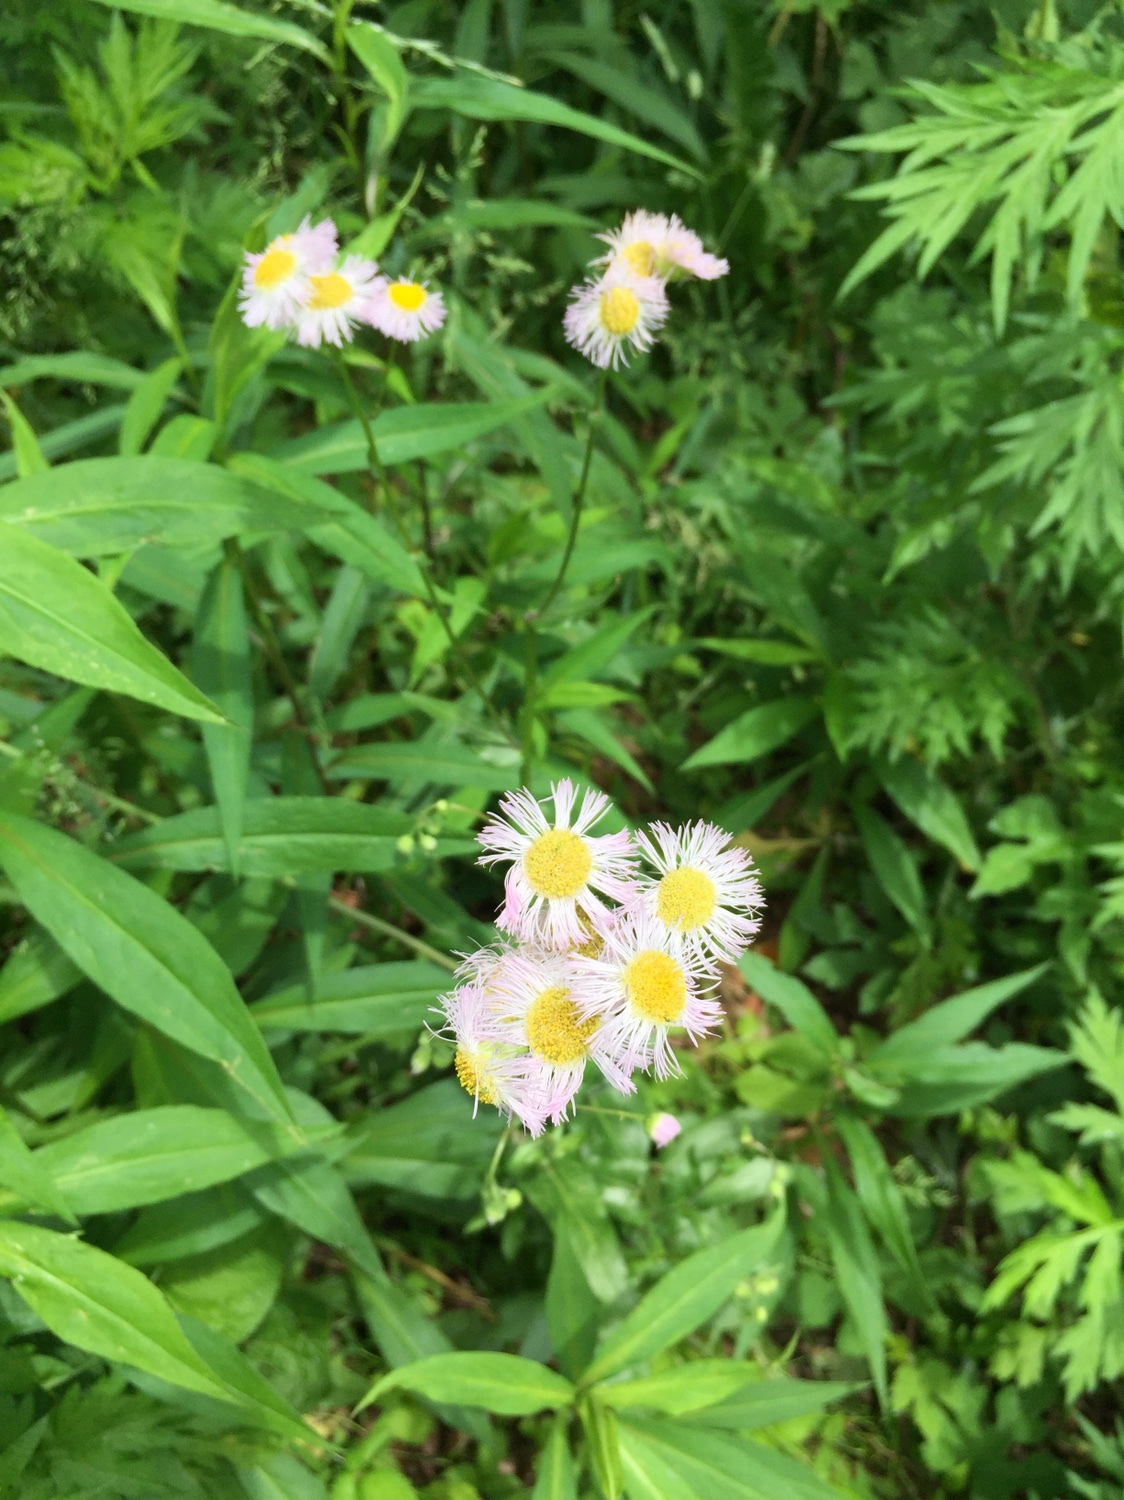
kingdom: Plantae
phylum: Tracheophyta
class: Magnoliopsida
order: Asterales
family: Asteraceae
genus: Erigeron
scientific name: Erigeron philadelphicus
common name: Robin's-plantain
